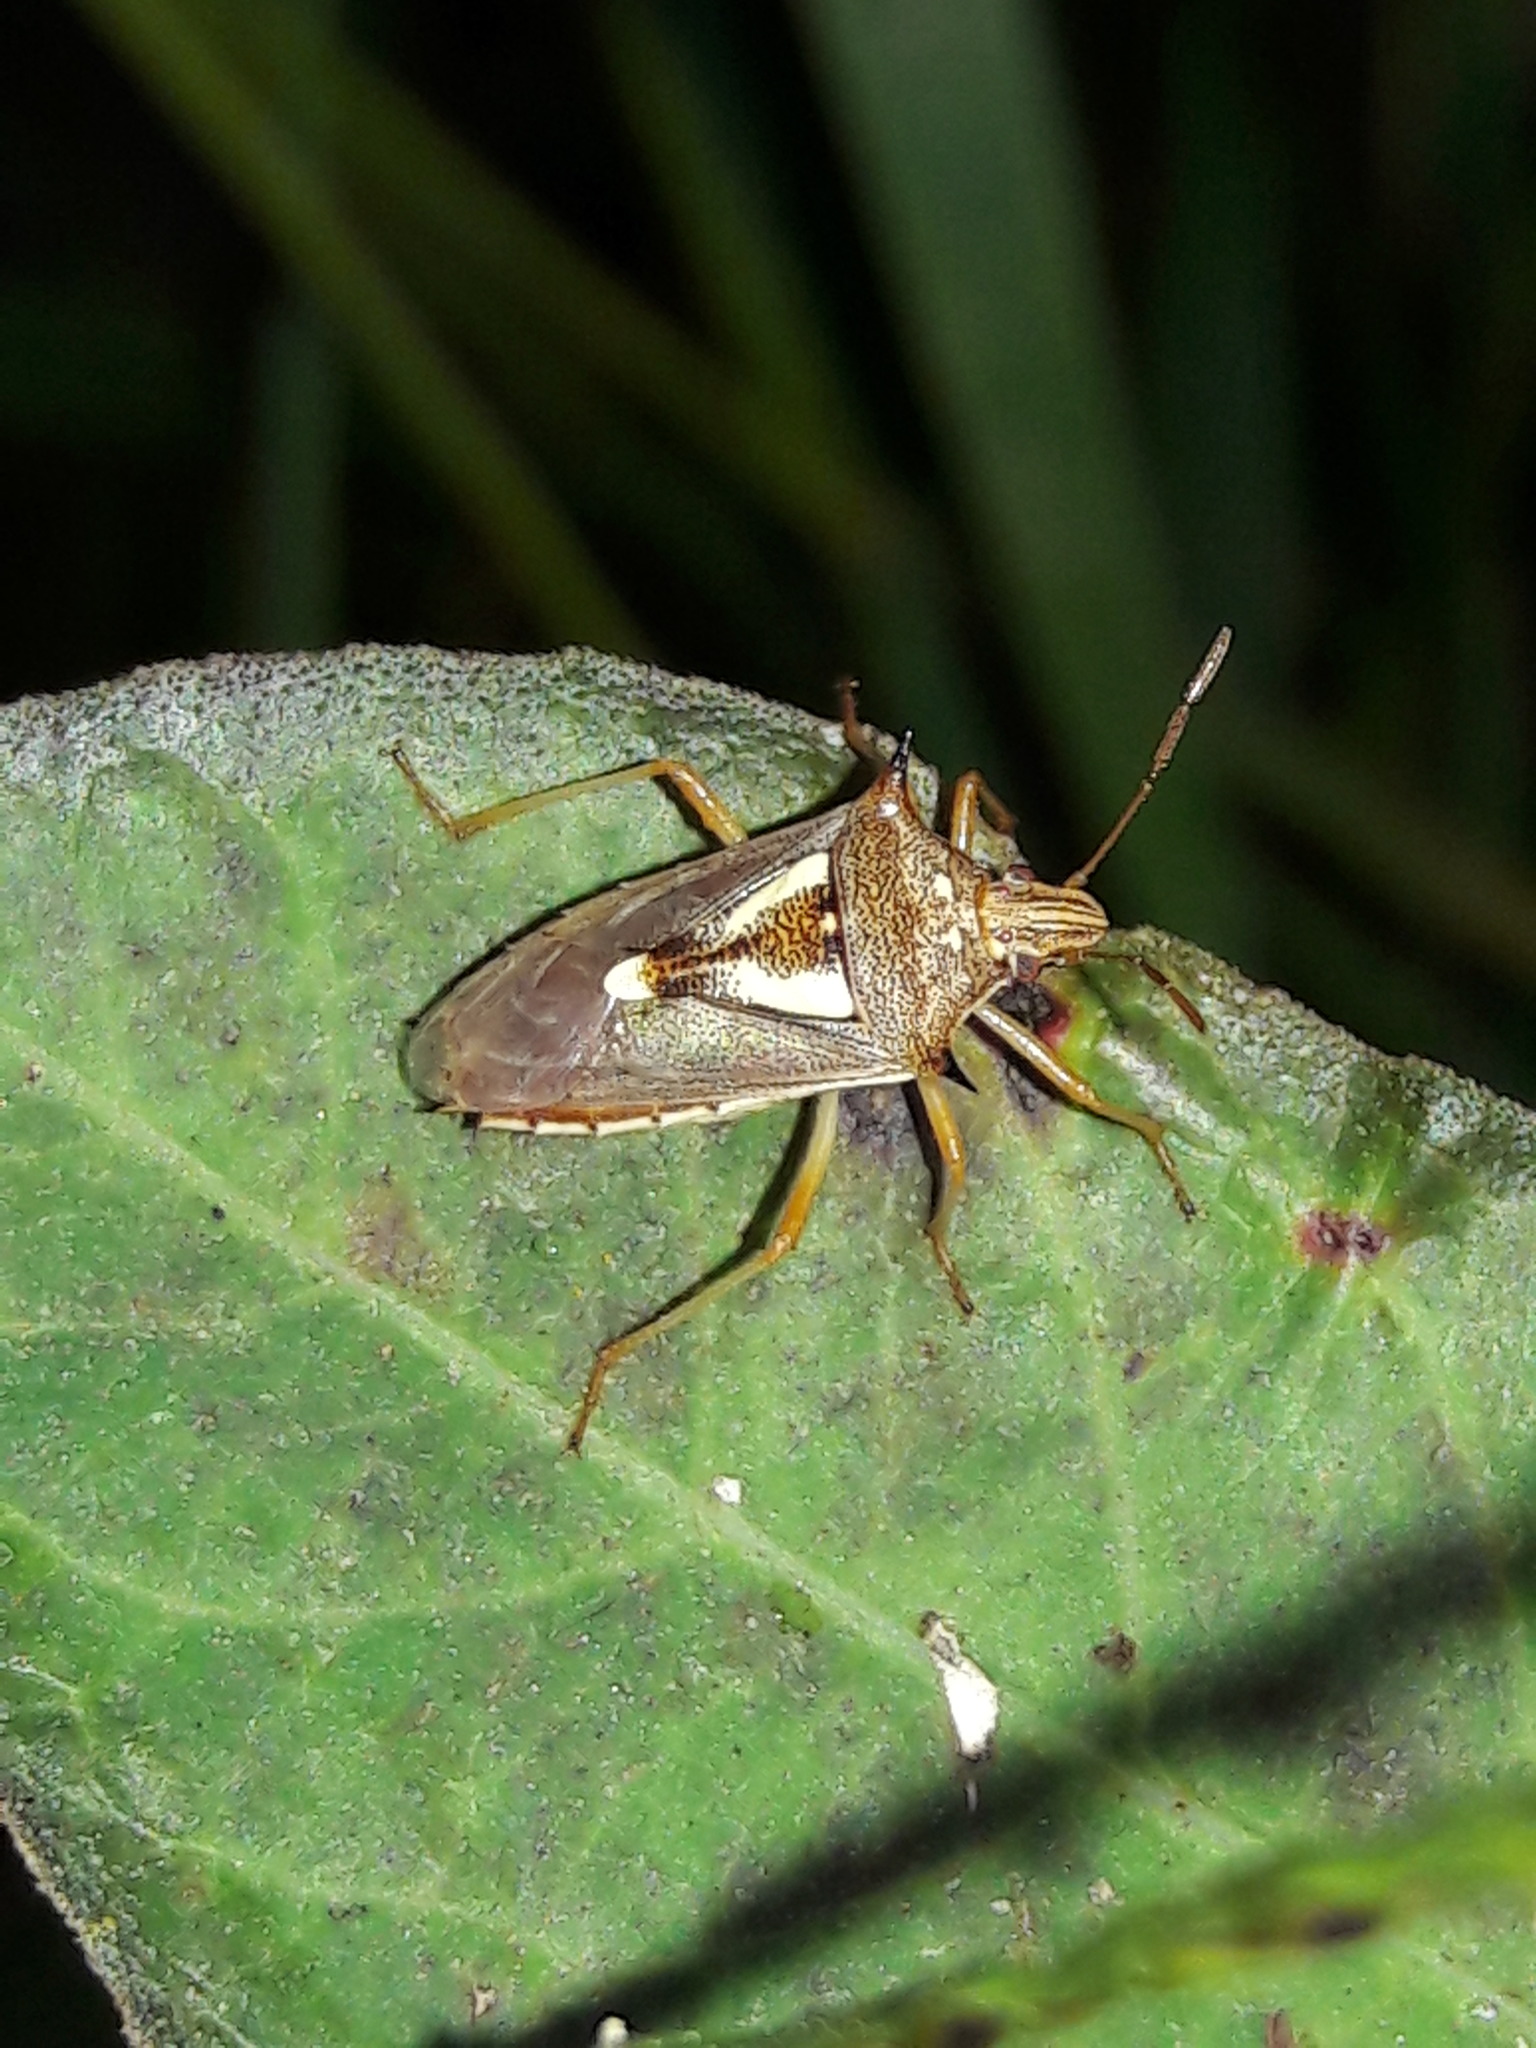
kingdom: Animalia
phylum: Arthropoda
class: Insecta
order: Hemiptera
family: Pentatomidae
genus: Oebalus
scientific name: Oebalus ypsilongriseus
